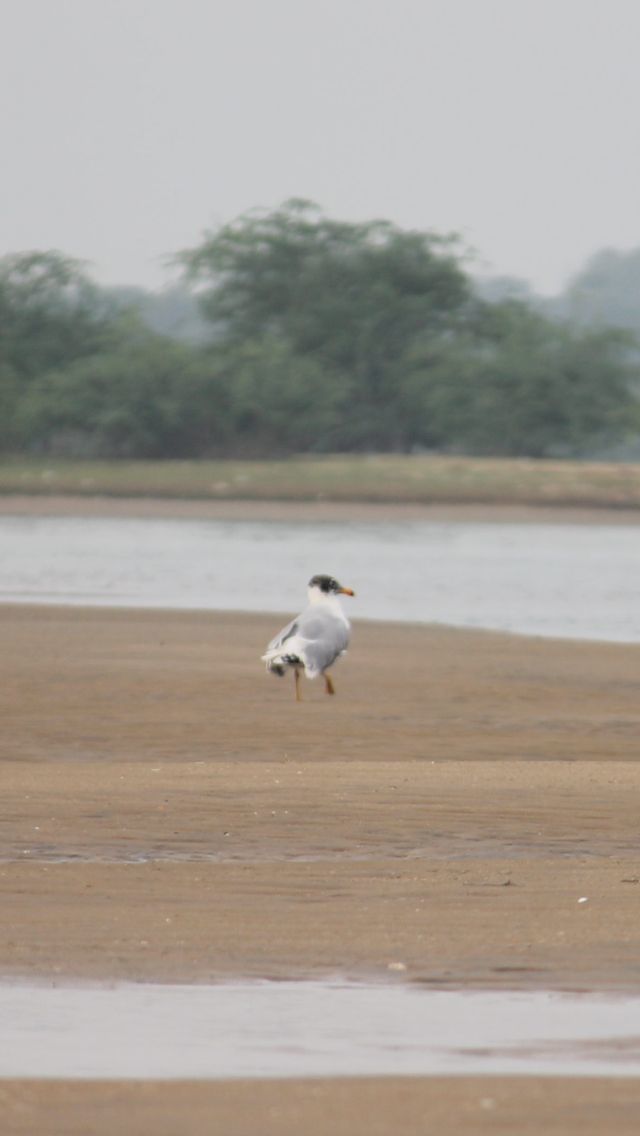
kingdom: Animalia
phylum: Chordata
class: Aves
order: Charadriiformes
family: Laridae
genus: Ichthyaetus
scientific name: Ichthyaetus ichthyaetus
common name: Pallas's gull
